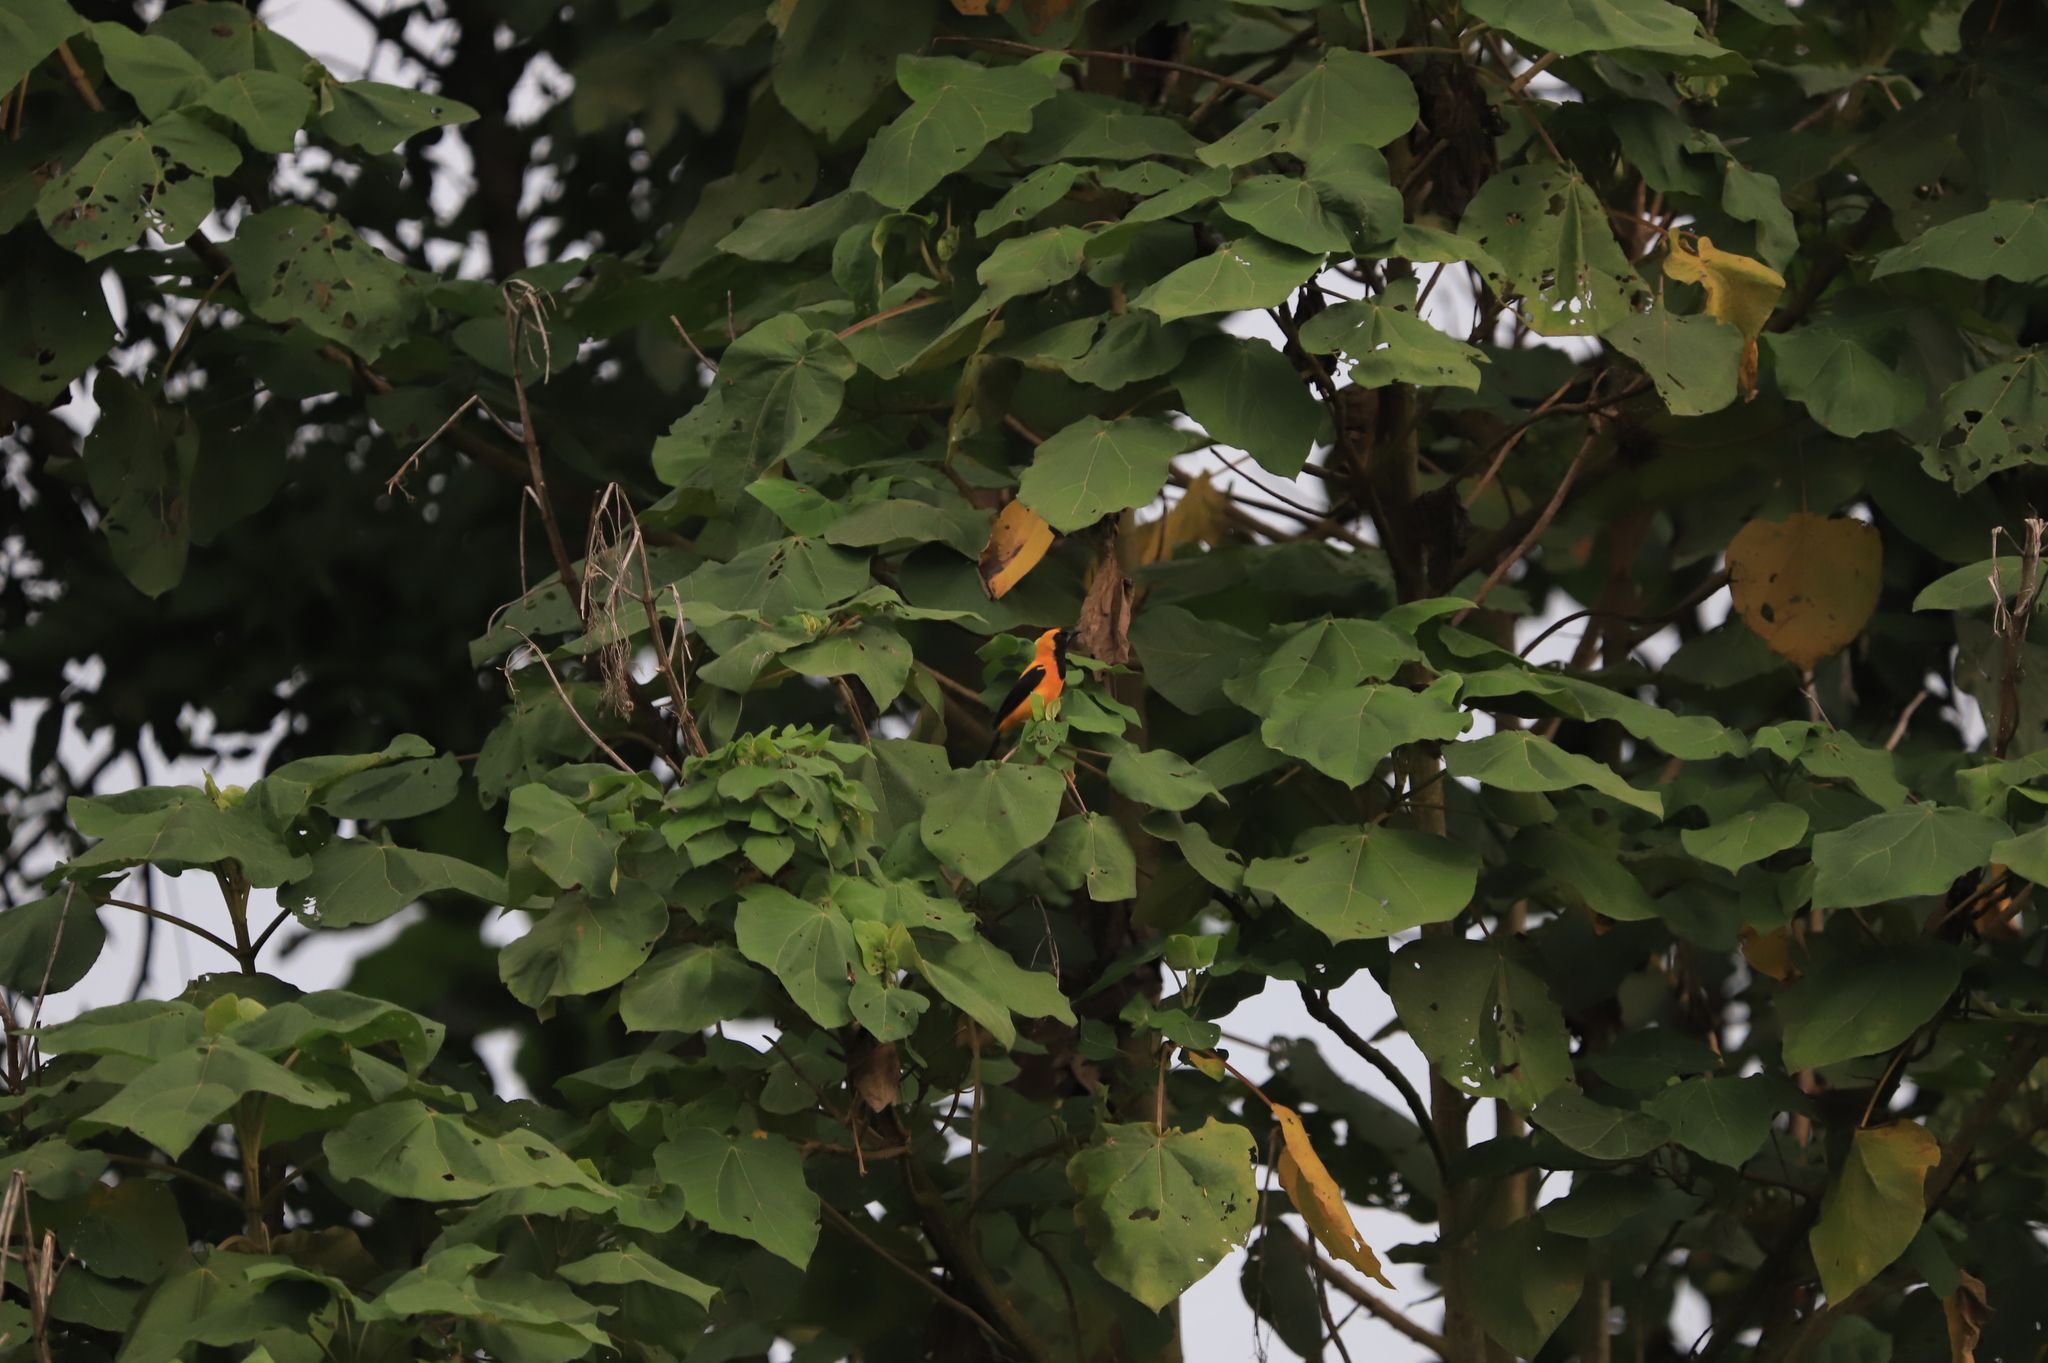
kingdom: Animalia
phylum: Chordata
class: Aves
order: Passeriformes
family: Icteridae
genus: Icterus
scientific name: Icterus chrysater
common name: Yellow-backed oriole
